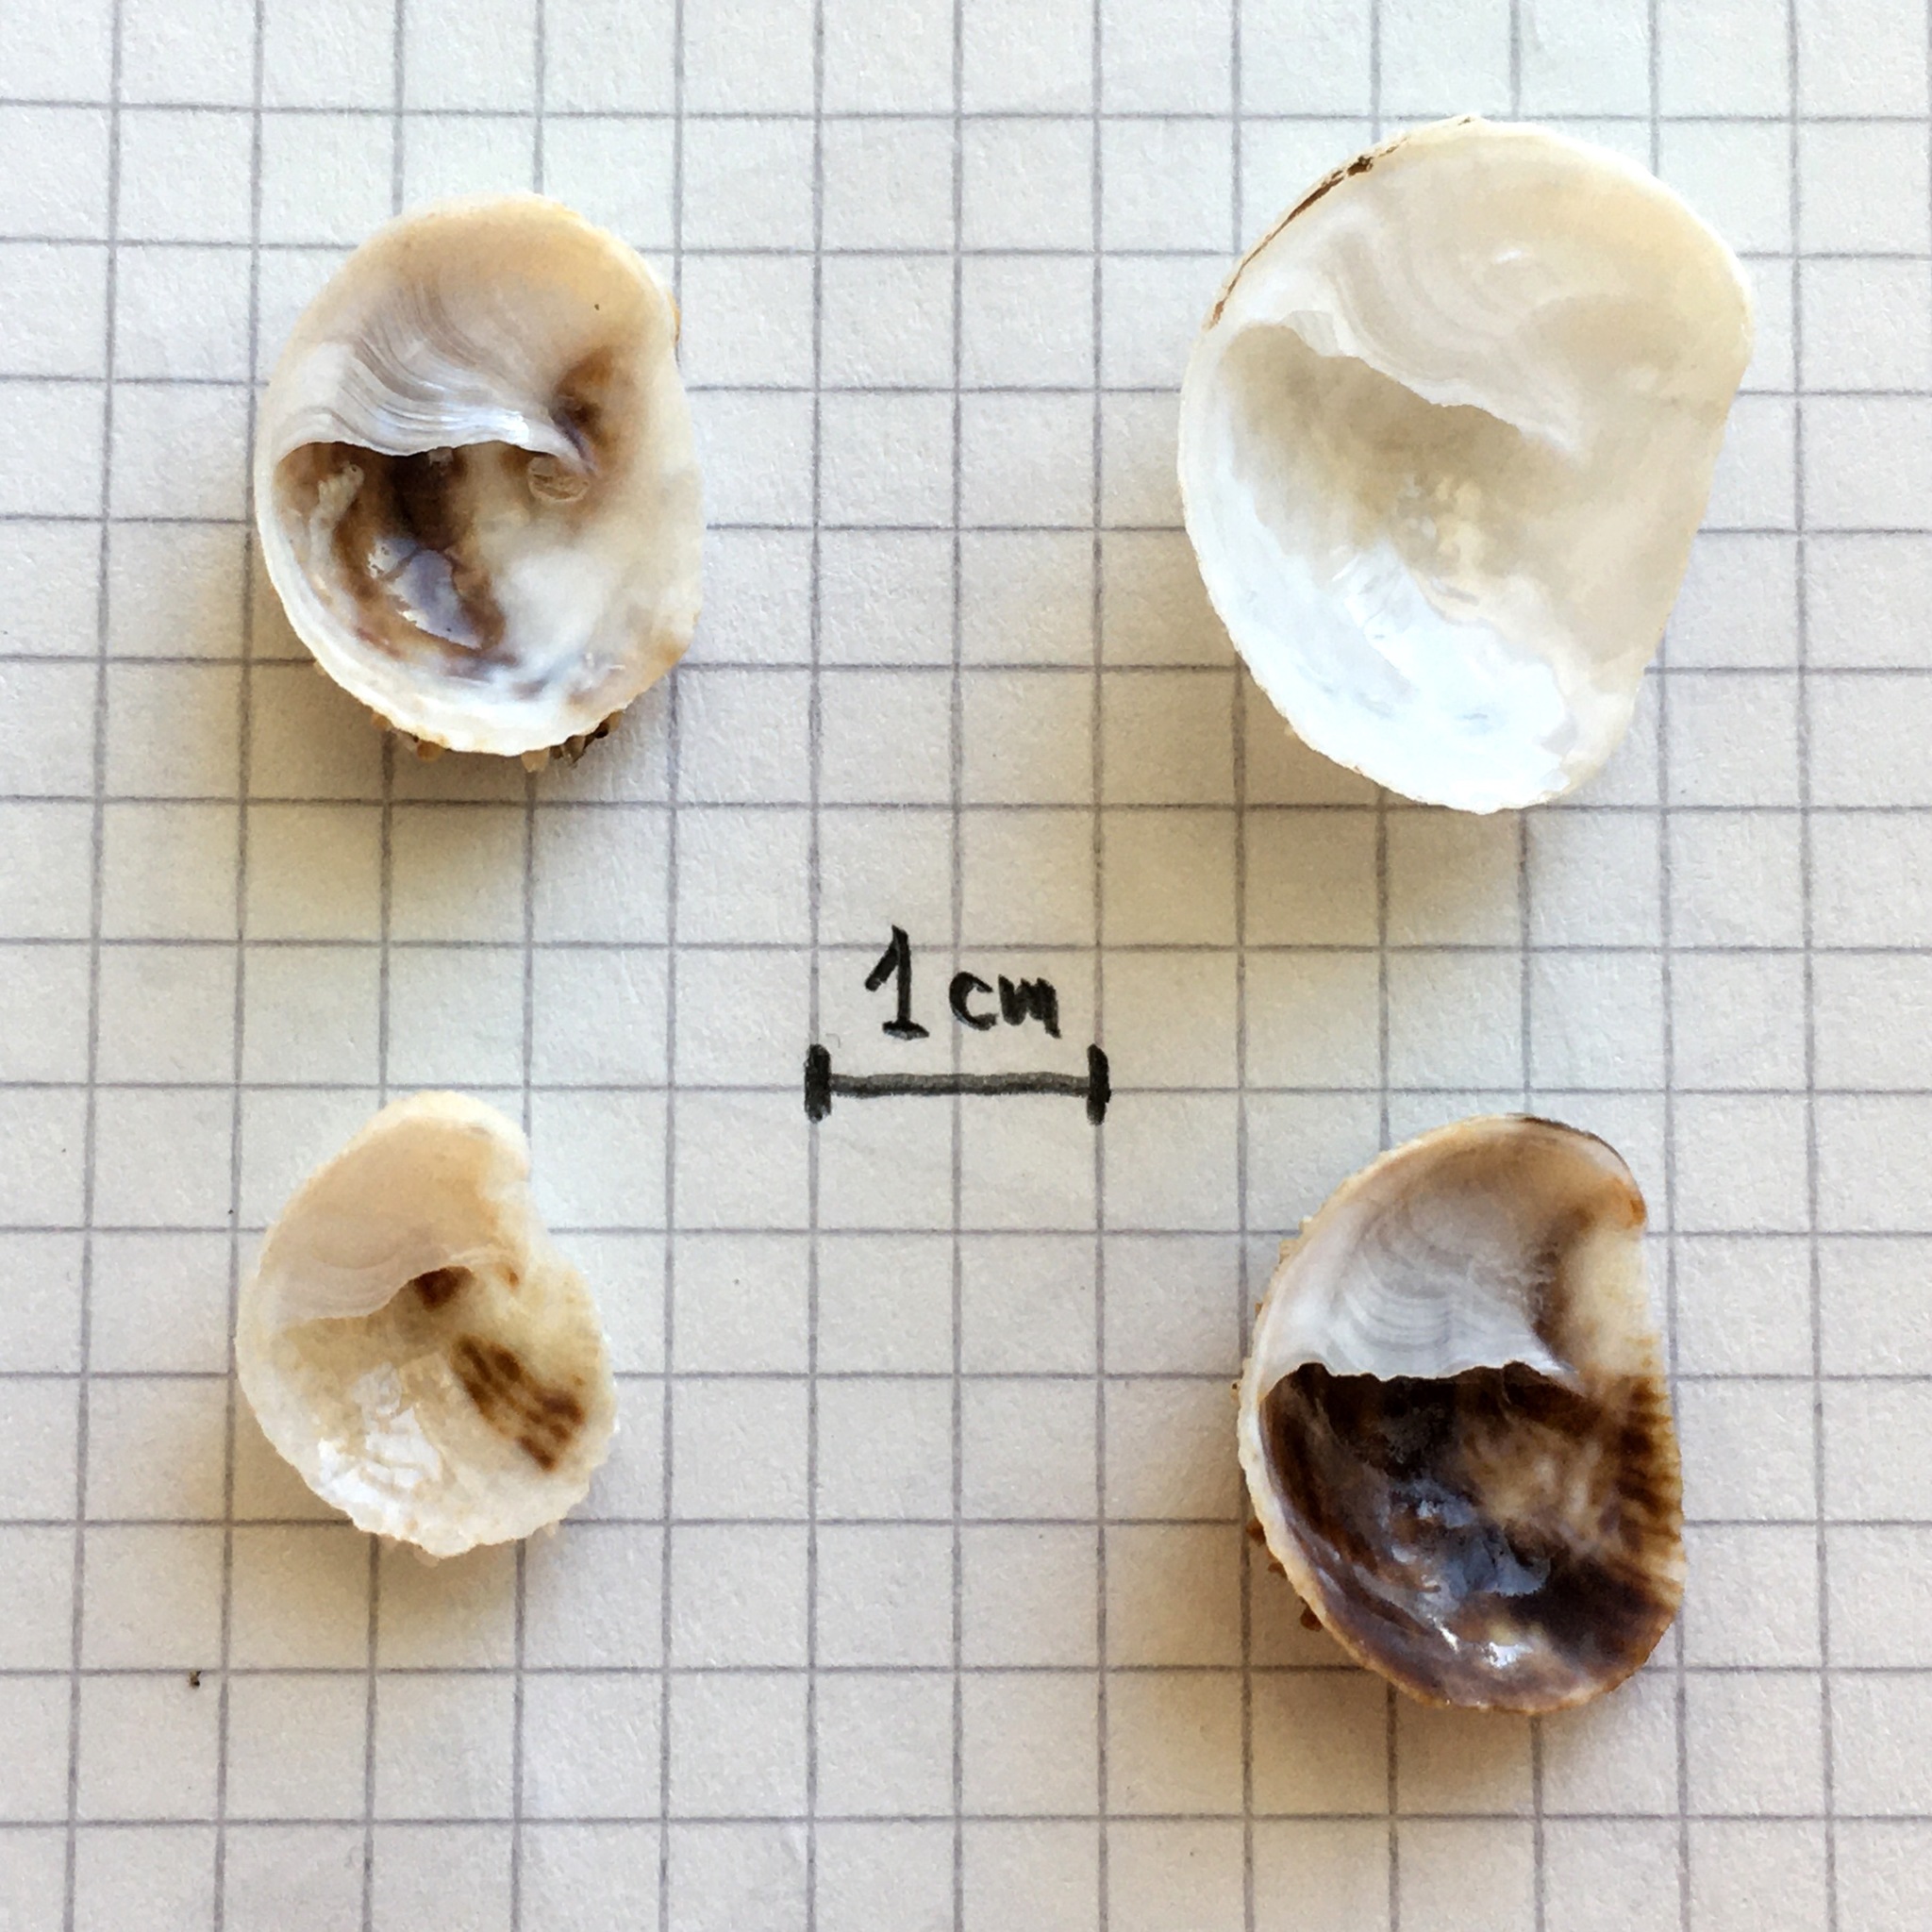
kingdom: Animalia
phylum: Mollusca
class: Gastropoda
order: Littorinimorpha
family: Calyptraeidae
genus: Bostrycapulus
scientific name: Bostrycapulus odites
